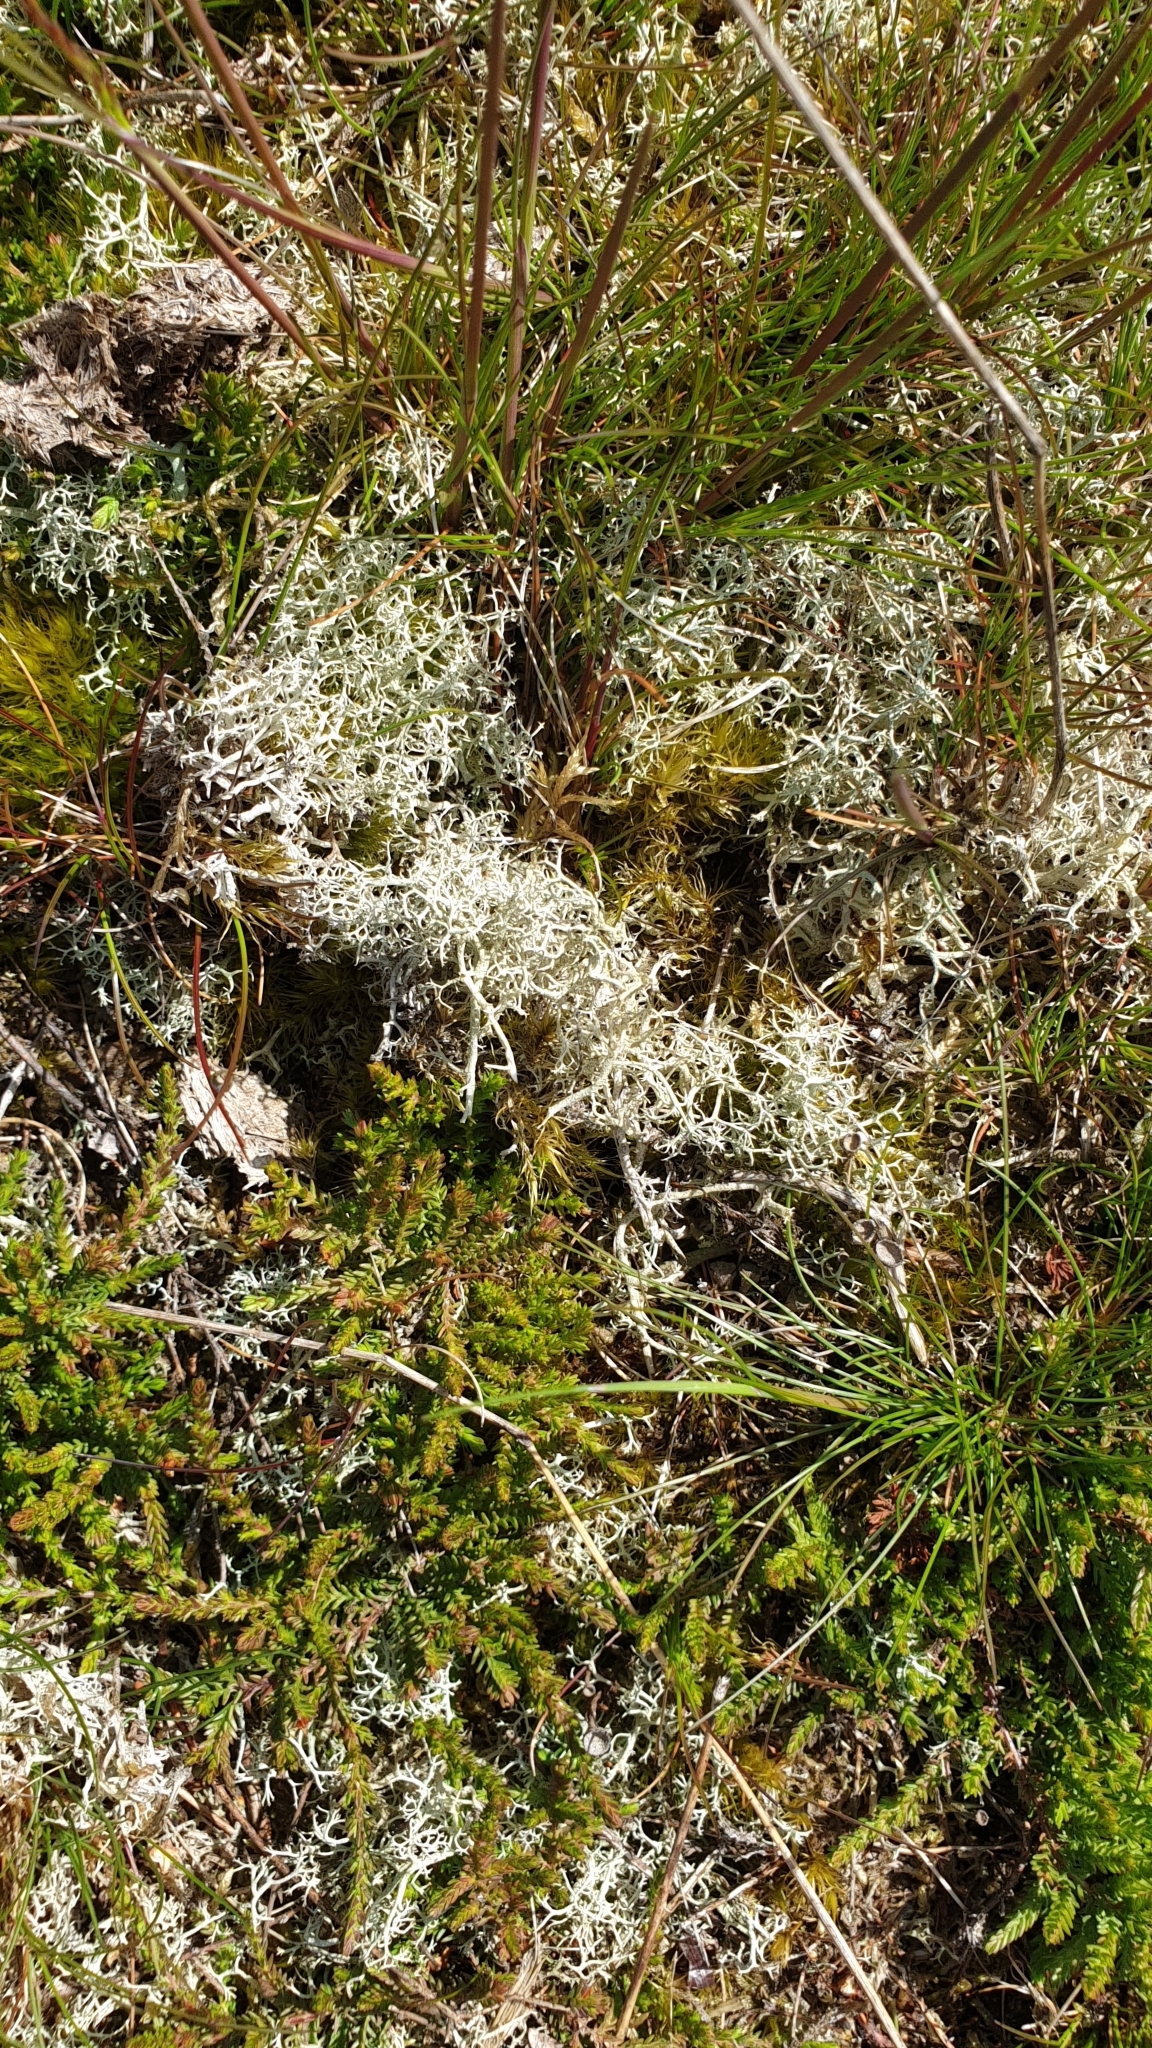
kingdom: Fungi
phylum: Ascomycota
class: Lecanoromycetes
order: Lecanorales
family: Cladoniaceae
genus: Cladonia
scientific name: Cladonia portentosa
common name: Reindeer lichen
